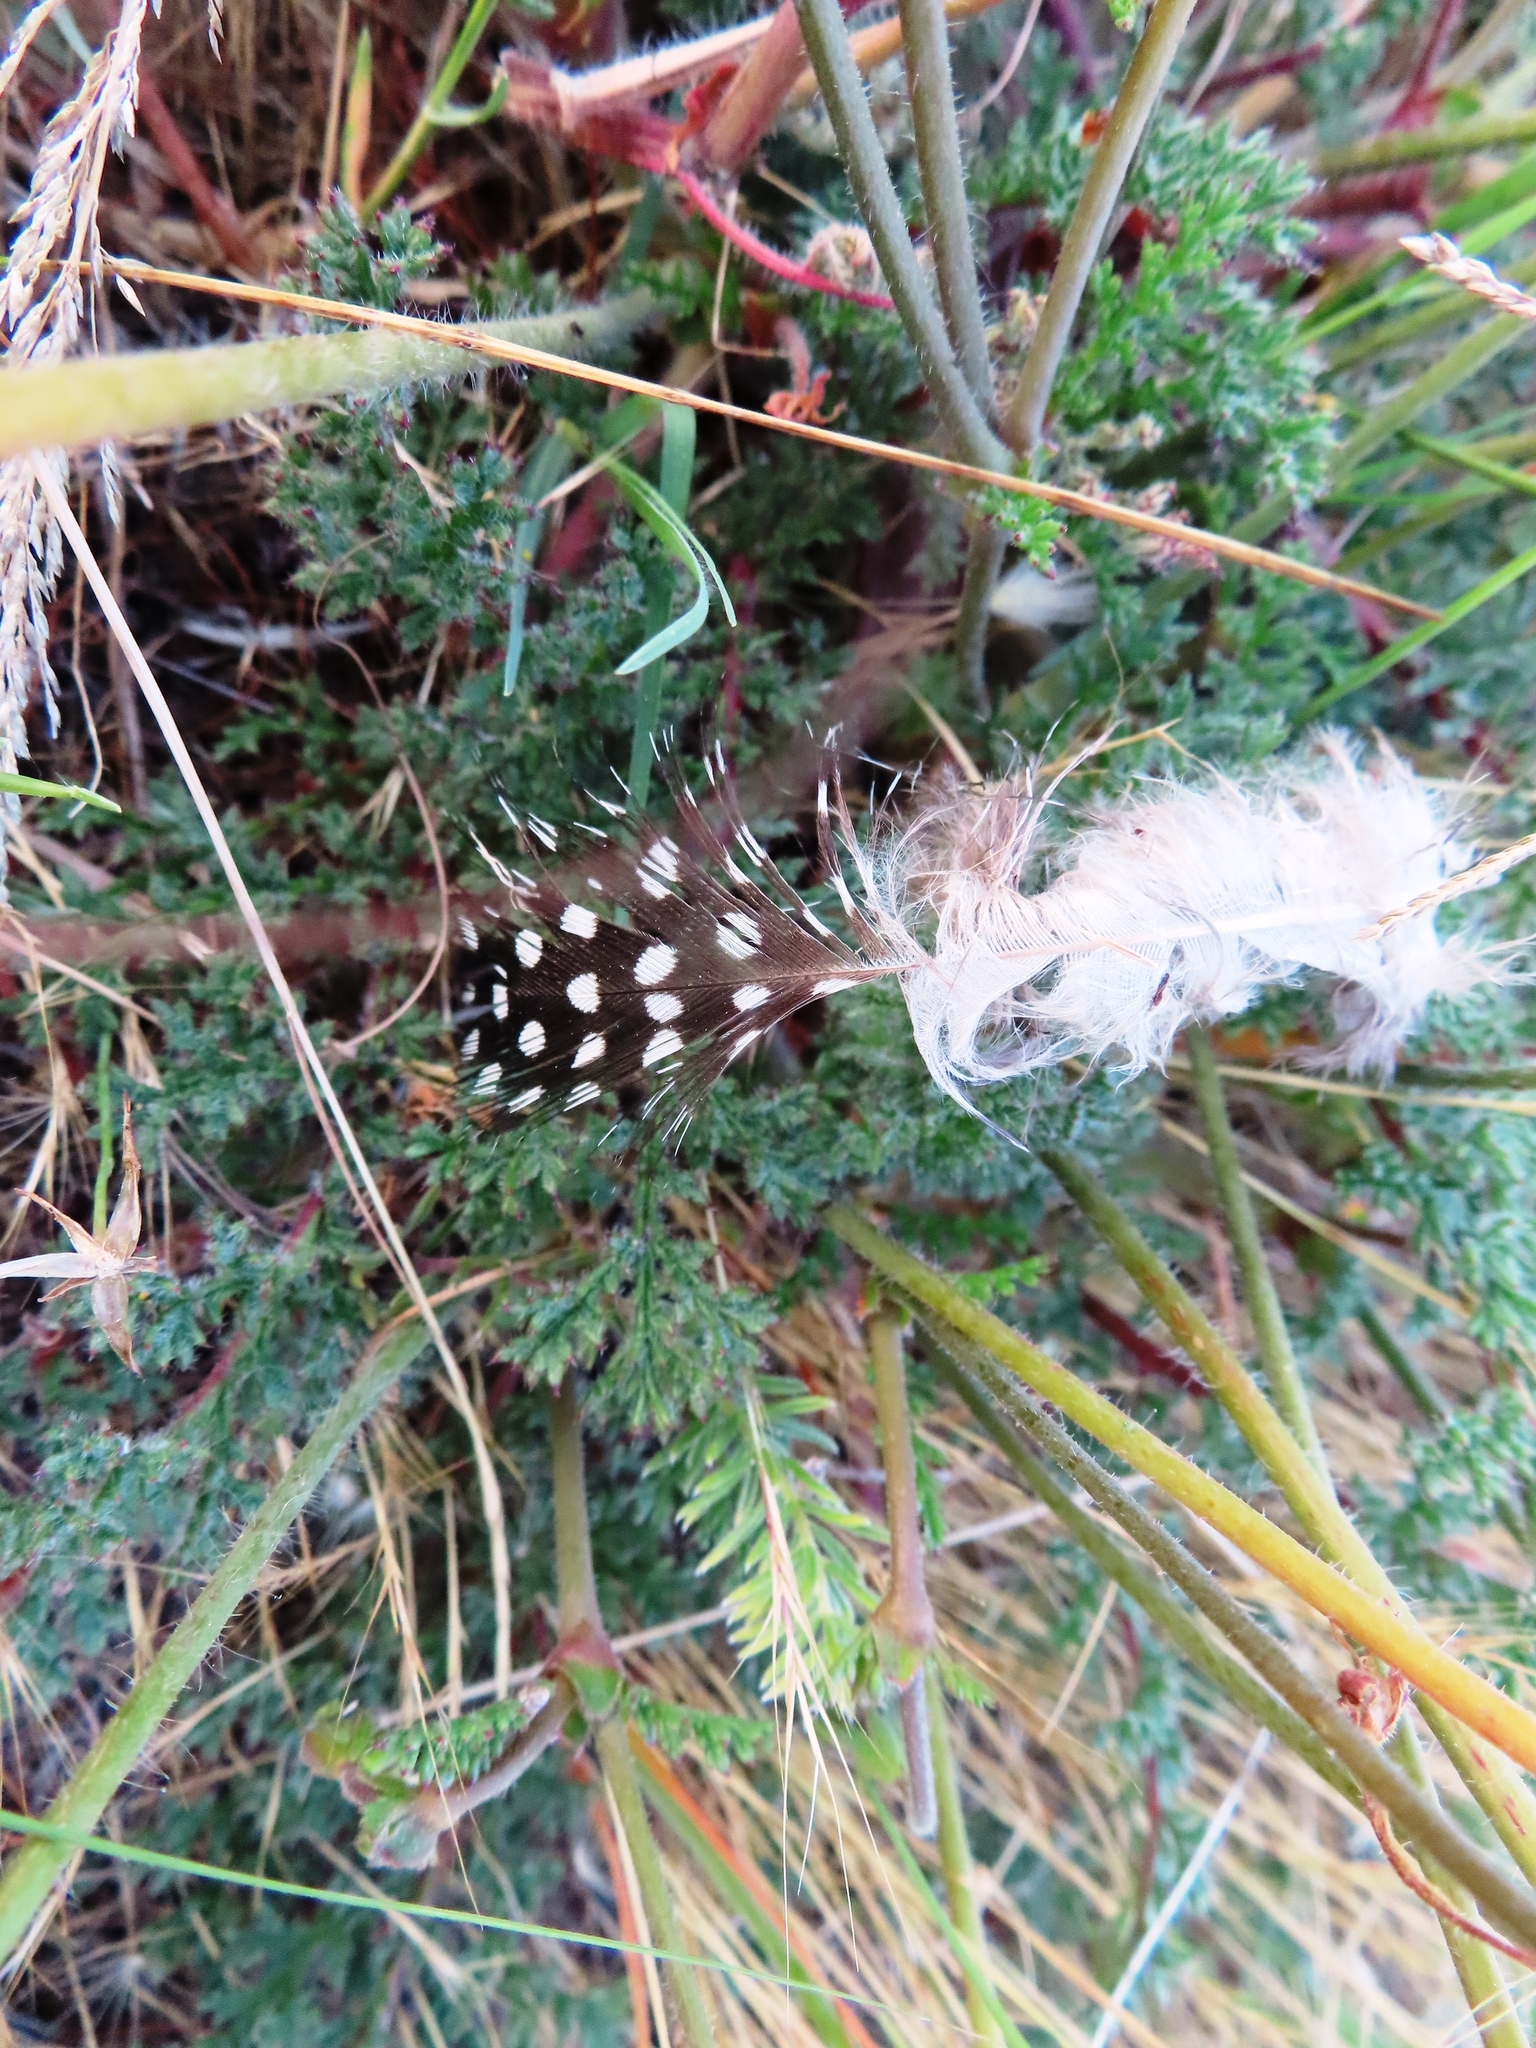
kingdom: Animalia
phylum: Chordata
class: Aves
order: Galliformes
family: Numididae
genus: Numida
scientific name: Numida meleagris
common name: Helmeted guineafowl
